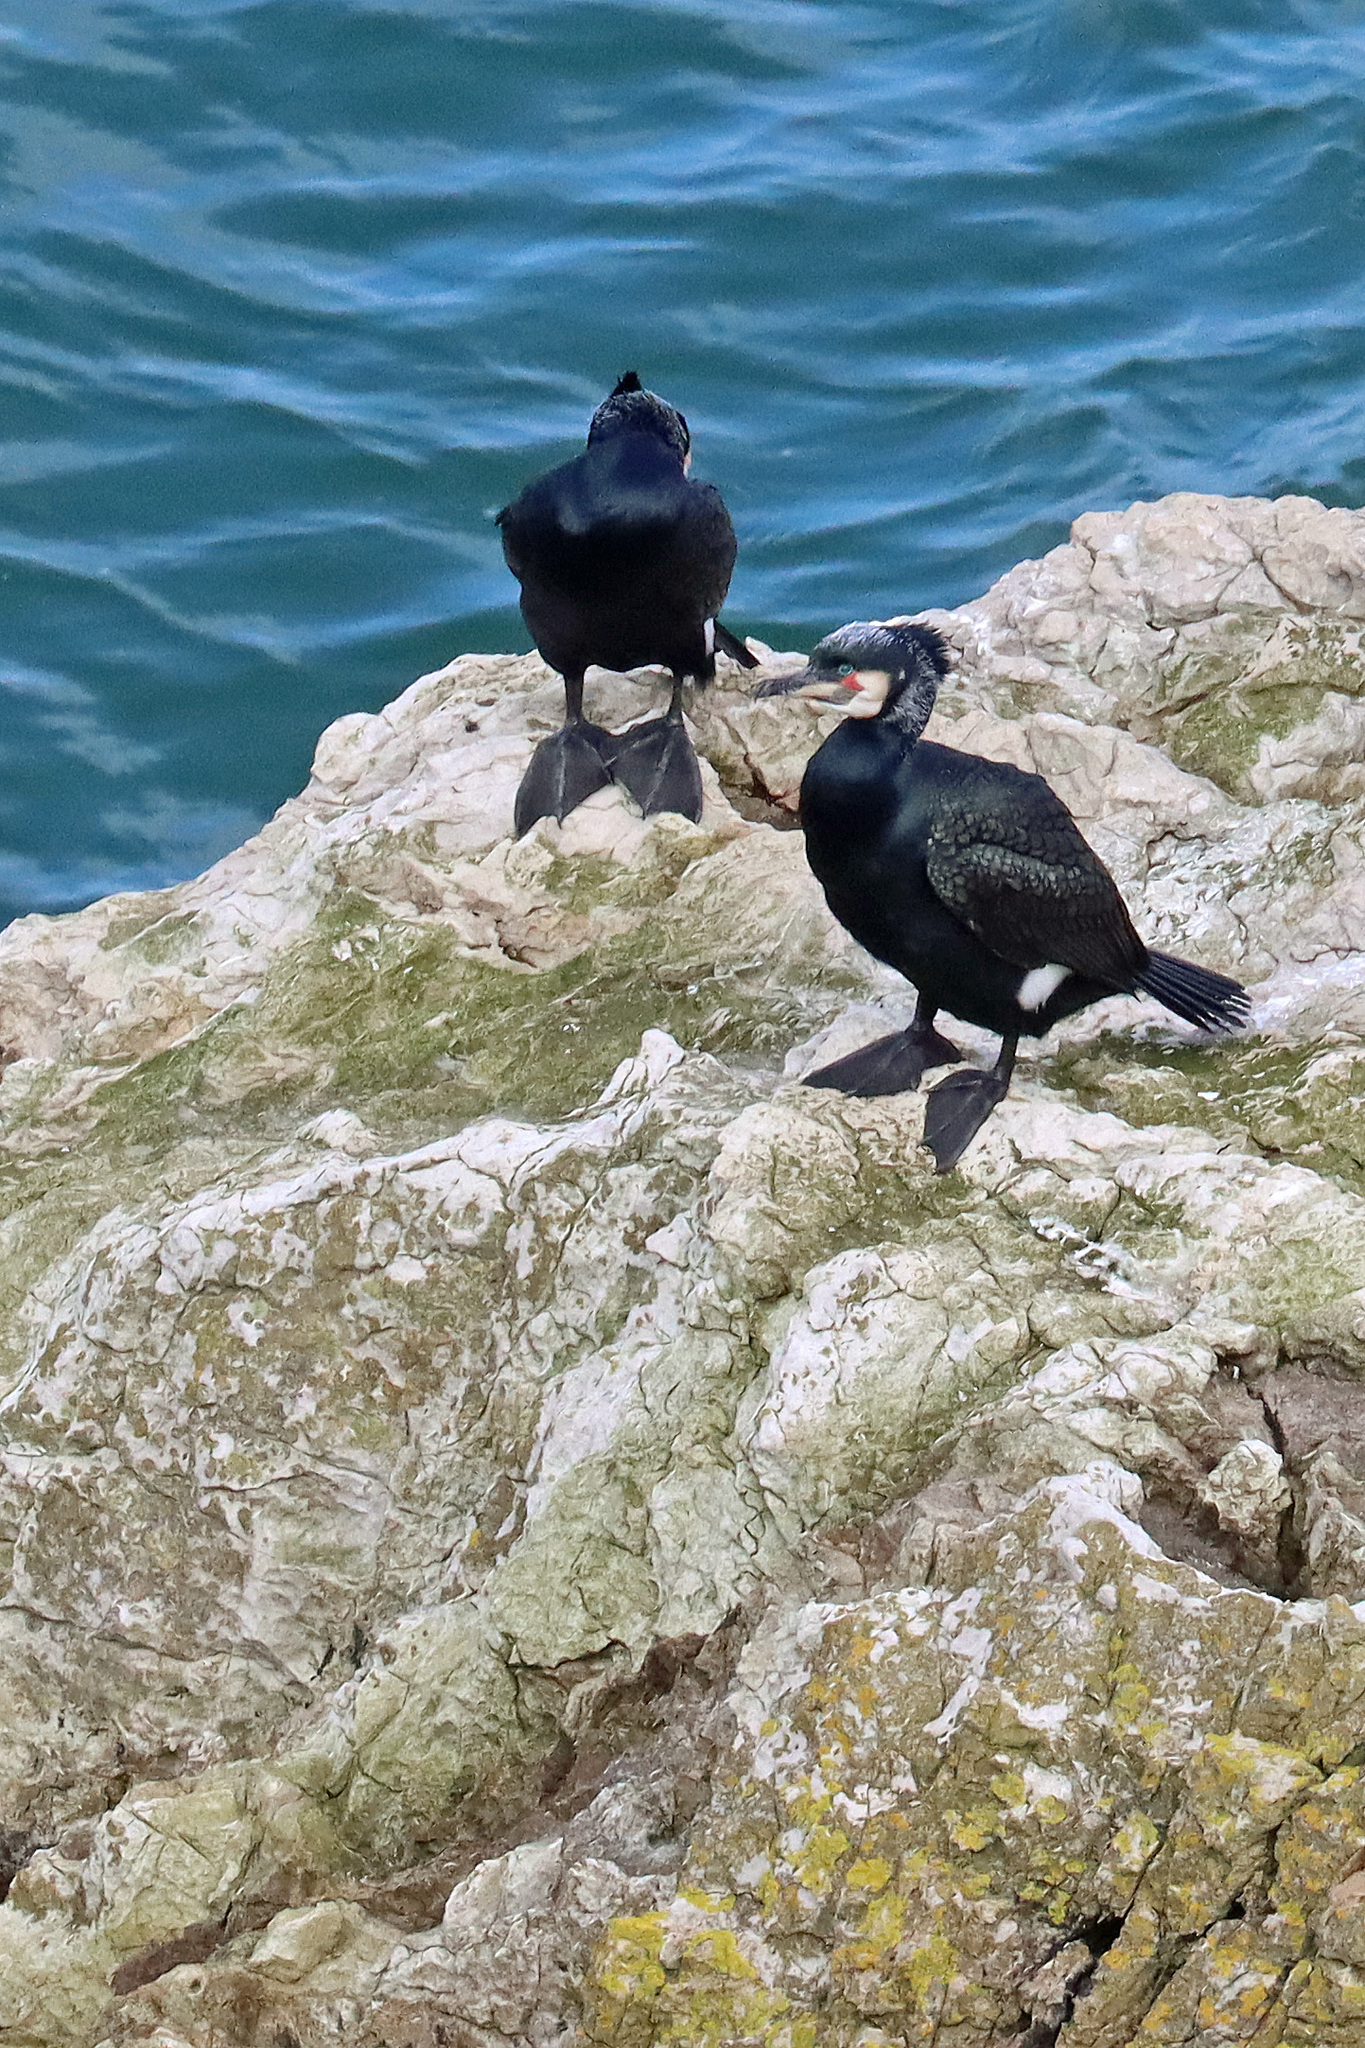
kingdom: Animalia
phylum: Chordata
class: Aves
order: Suliformes
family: Phalacrocoracidae
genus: Phalacrocorax
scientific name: Phalacrocorax carbo
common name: Great cormorant
